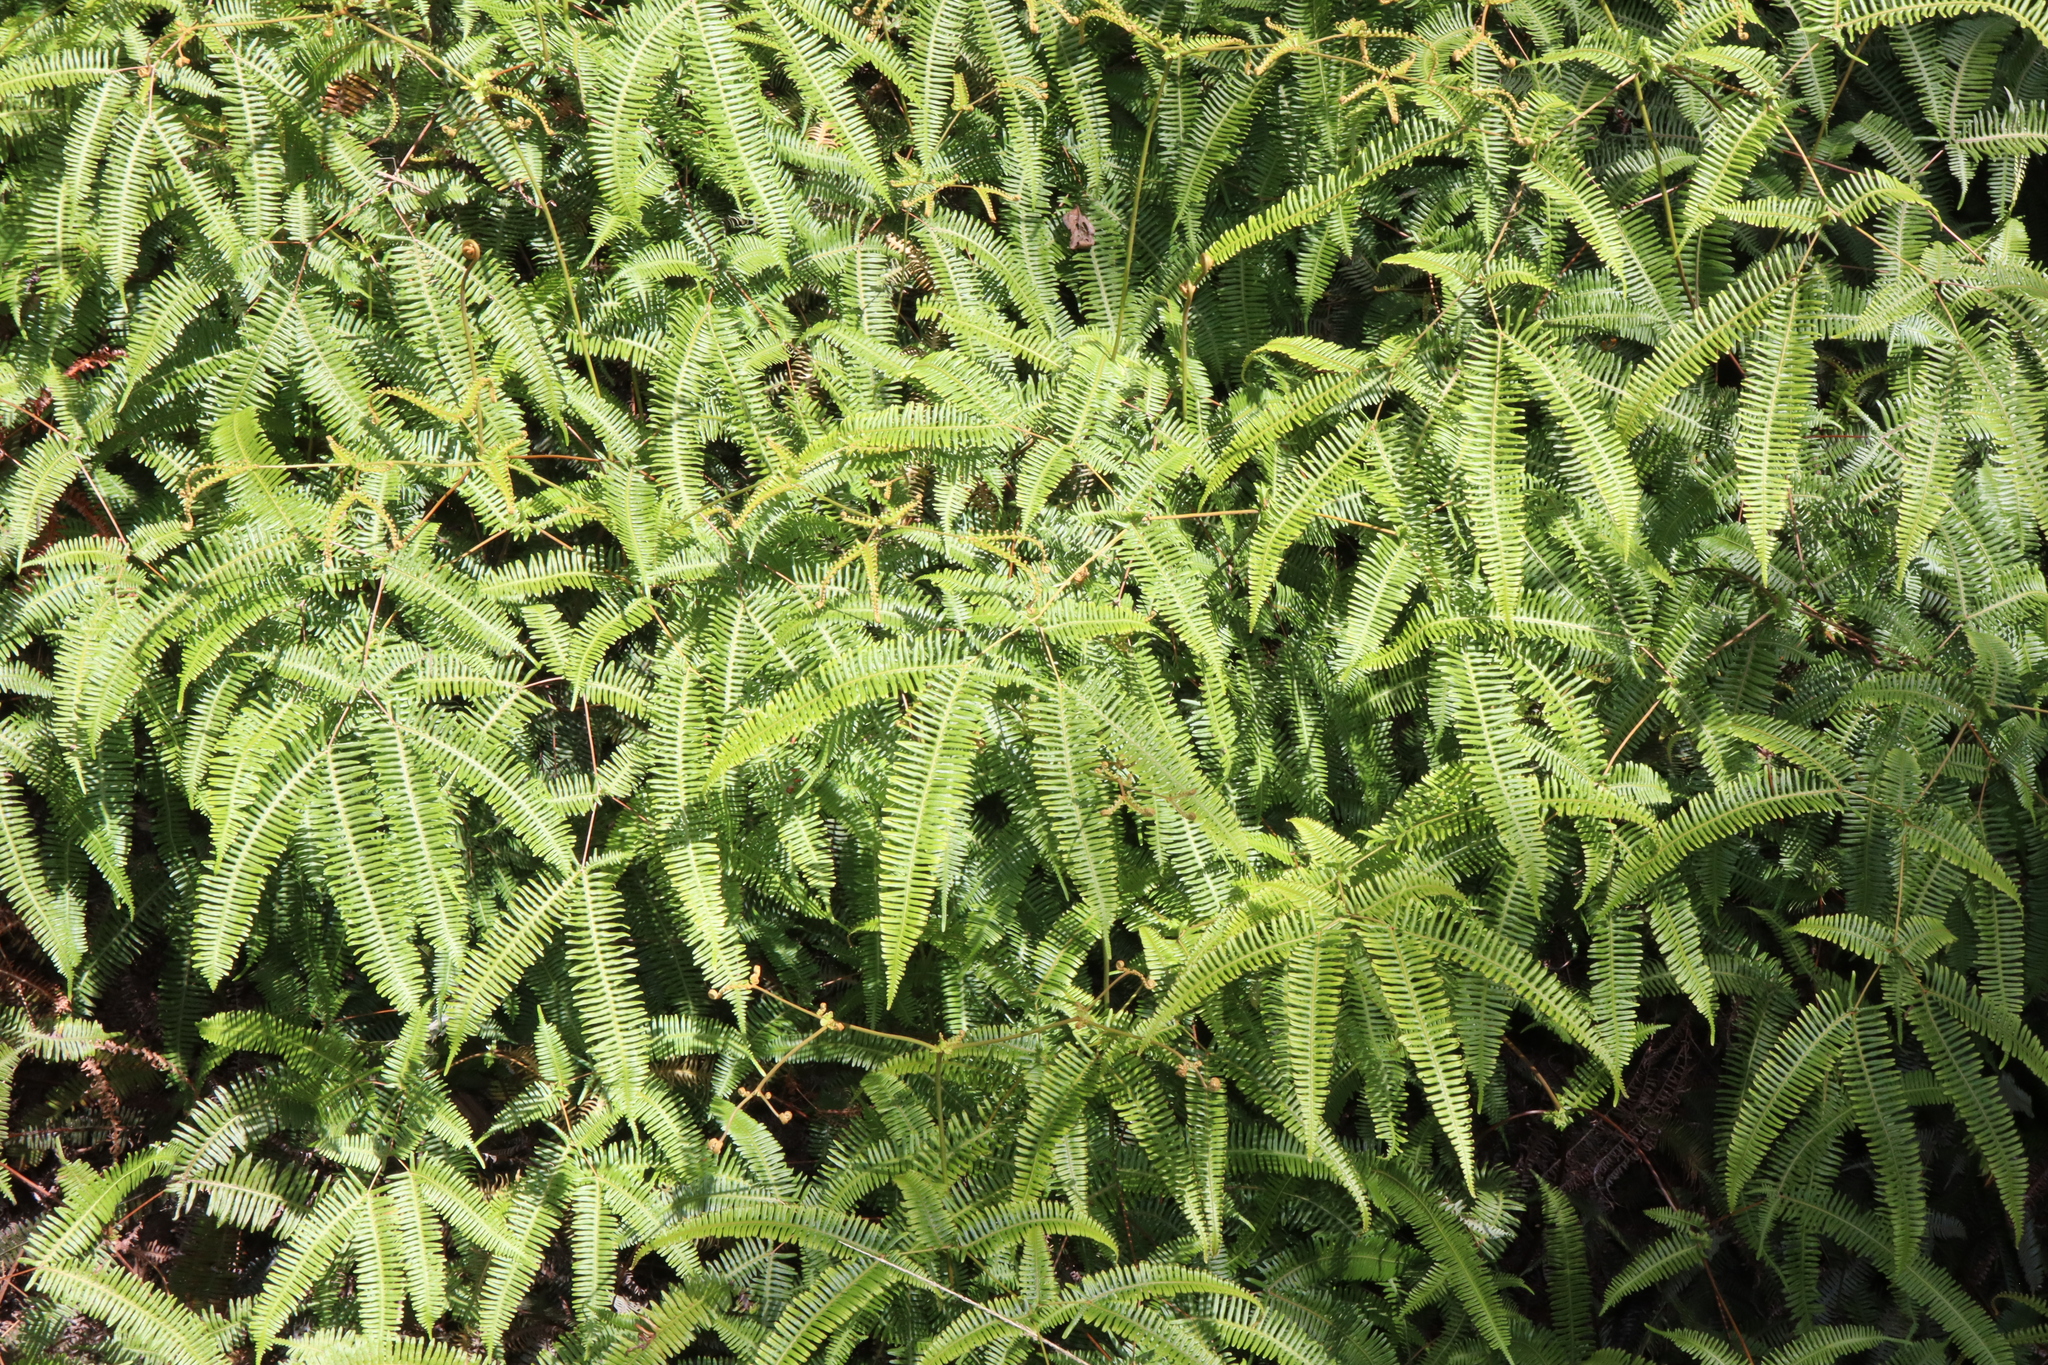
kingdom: Plantae
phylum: Tracheophyta
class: Polypodiopsida
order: Gleicheniales
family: Gleicheniaceae
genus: Dicranopteris
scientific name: Dicranopteris linearis
